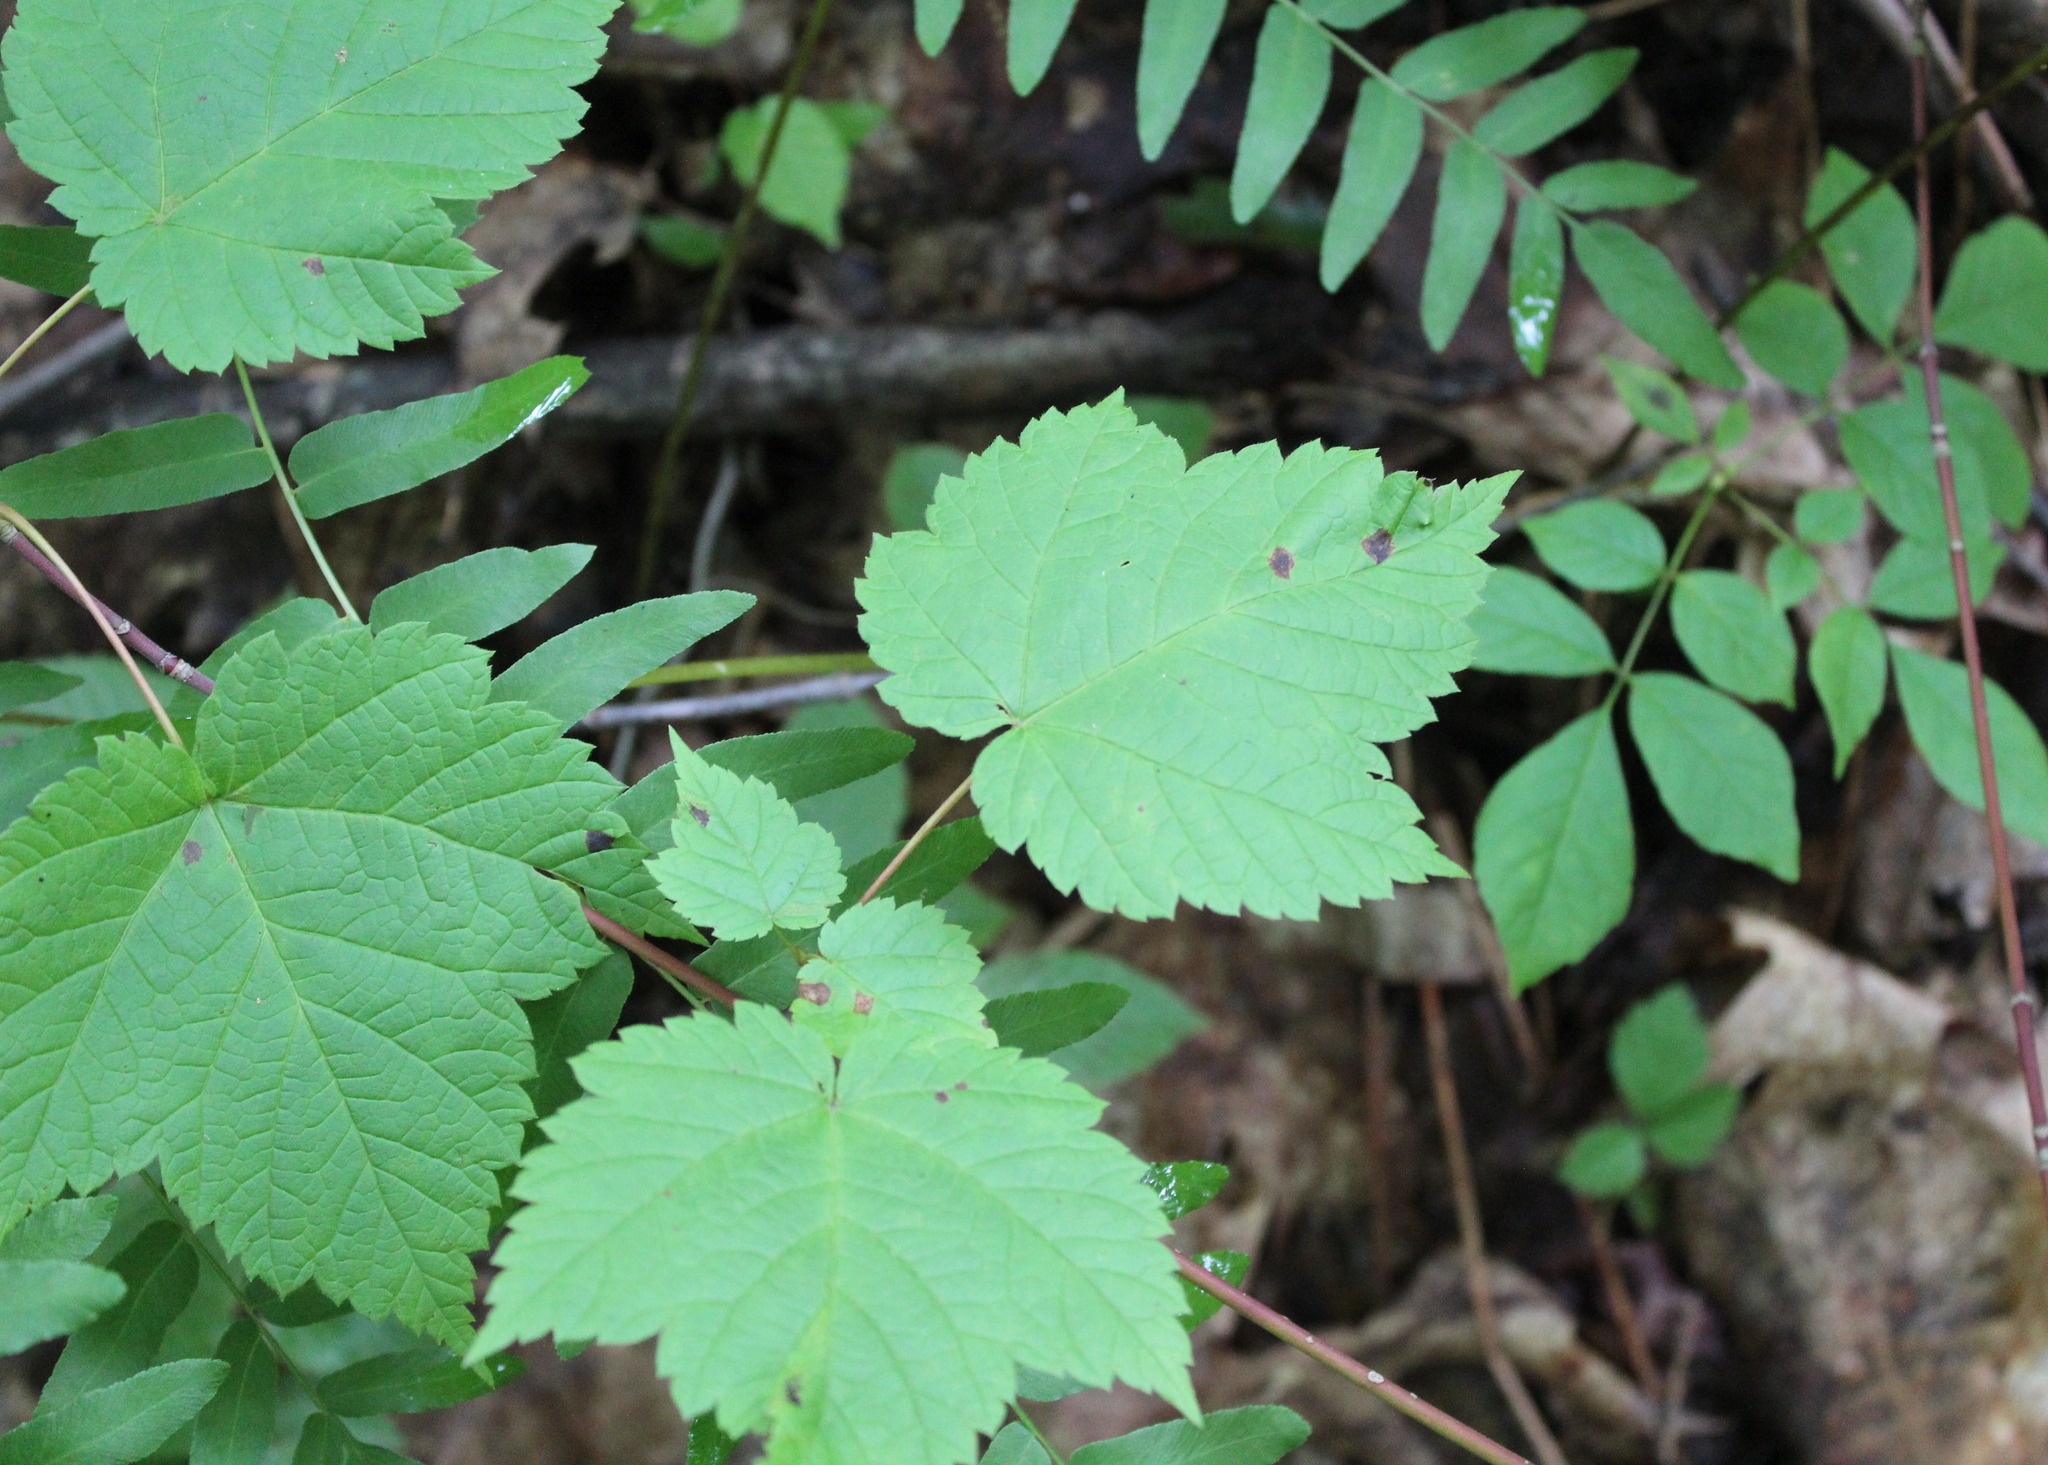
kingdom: Plantae
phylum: Tracheophyta
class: Magnoliopsida
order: Sapindales
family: Sapindaceae
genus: Acer
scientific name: Acer spicatum
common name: Mountain maple
